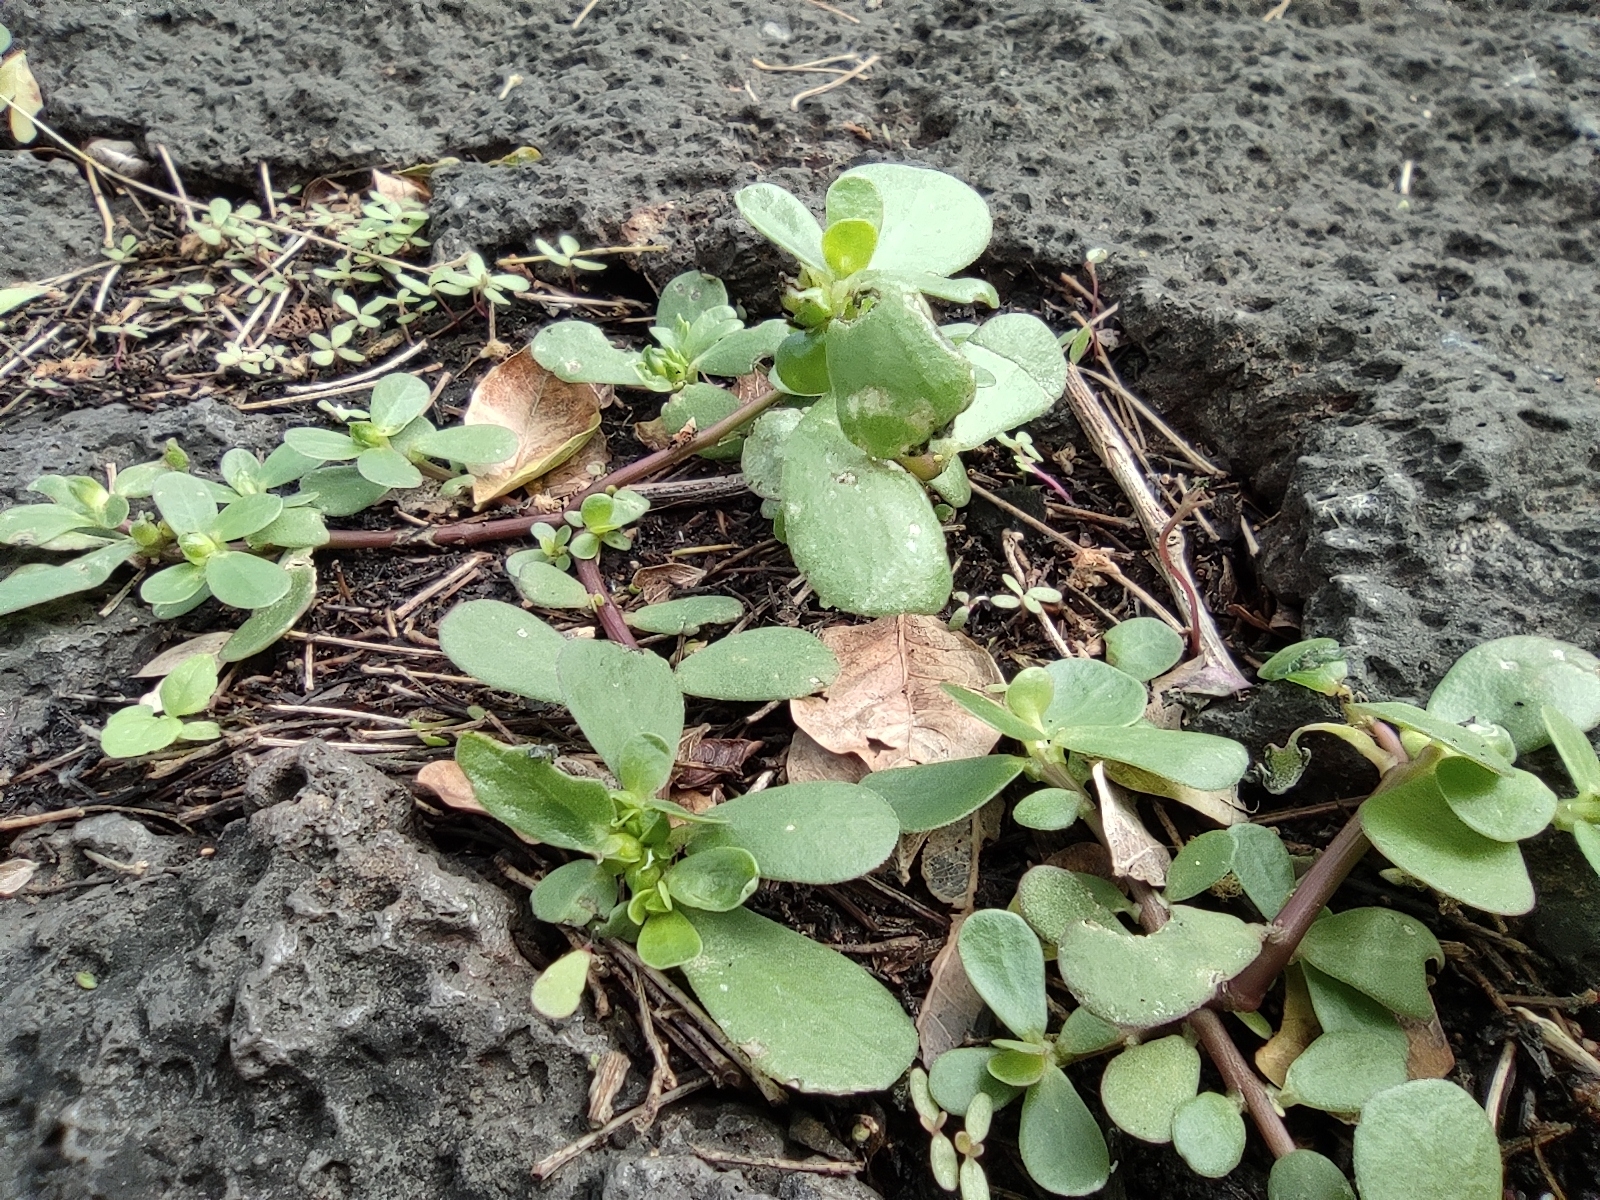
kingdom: Plantae
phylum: Tracheophyta
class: Magnoliopsida
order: Caryophyllales
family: Portulacaceae
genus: Portulaca
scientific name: Portulaca oleracea
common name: Common purslane
